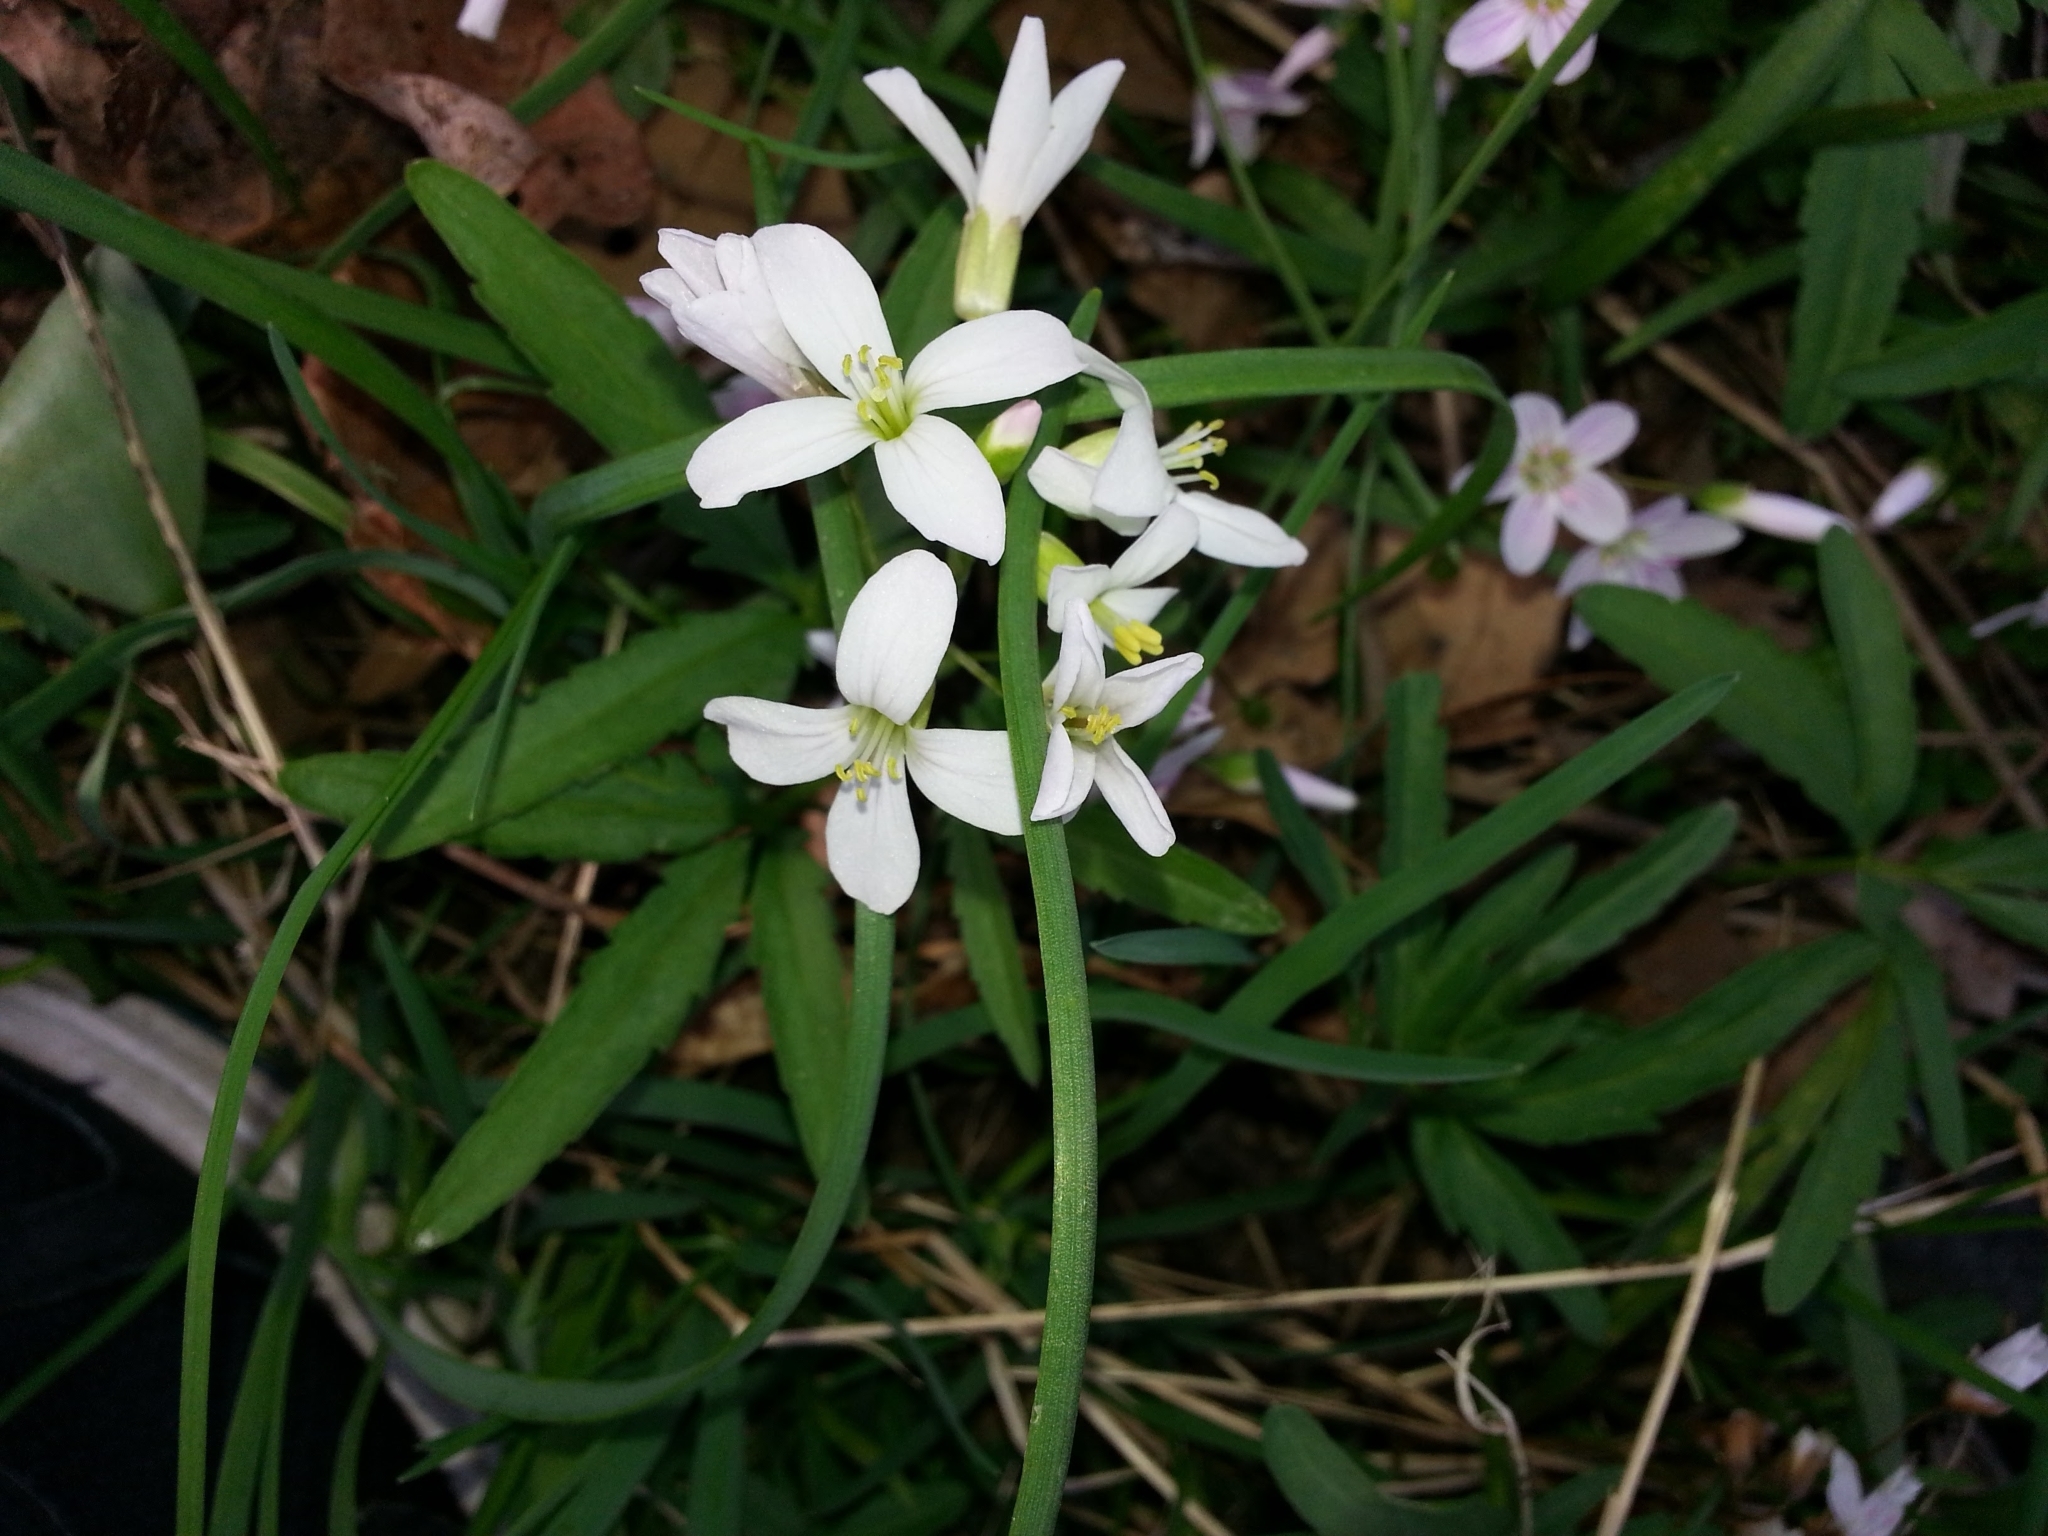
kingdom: Plantae
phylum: Tracheophyta
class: Magnoliopsida
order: Brassicales
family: Brassicaceae
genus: Cardamine
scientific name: Cardamine concatenata
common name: Cut-leaf toothcup
